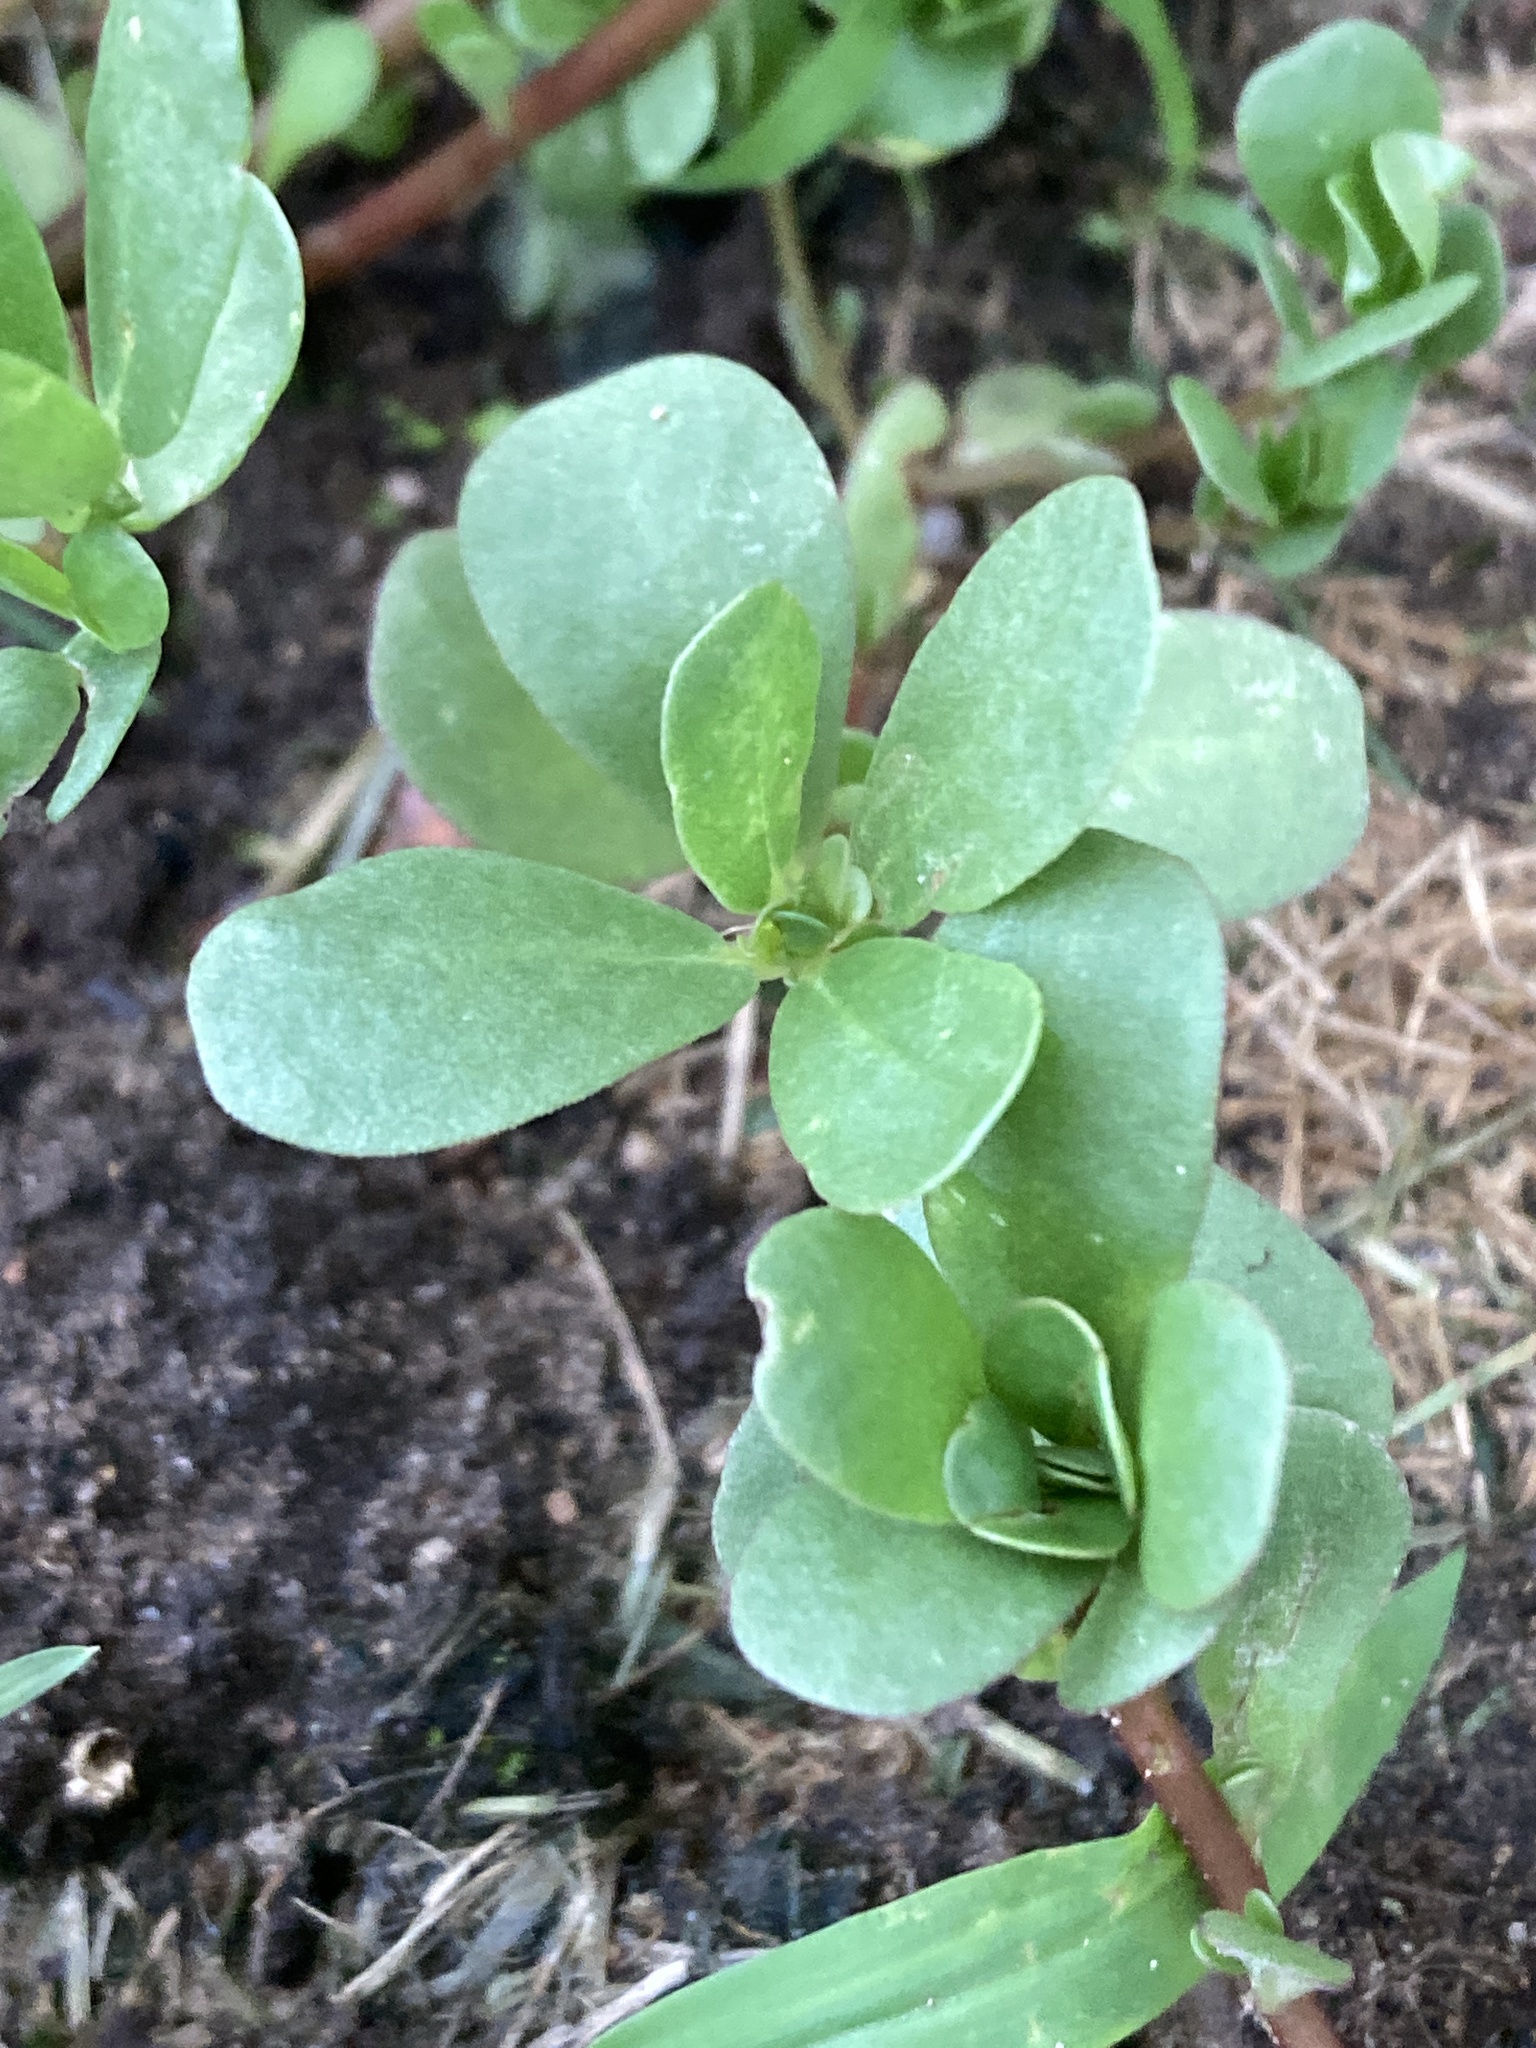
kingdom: Plantae
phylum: Tracheophyta
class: Magnoliopsida
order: Caryophyllales
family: Portulacaceae
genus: Portulaca
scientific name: Portulaca oleracea
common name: Common purslane
